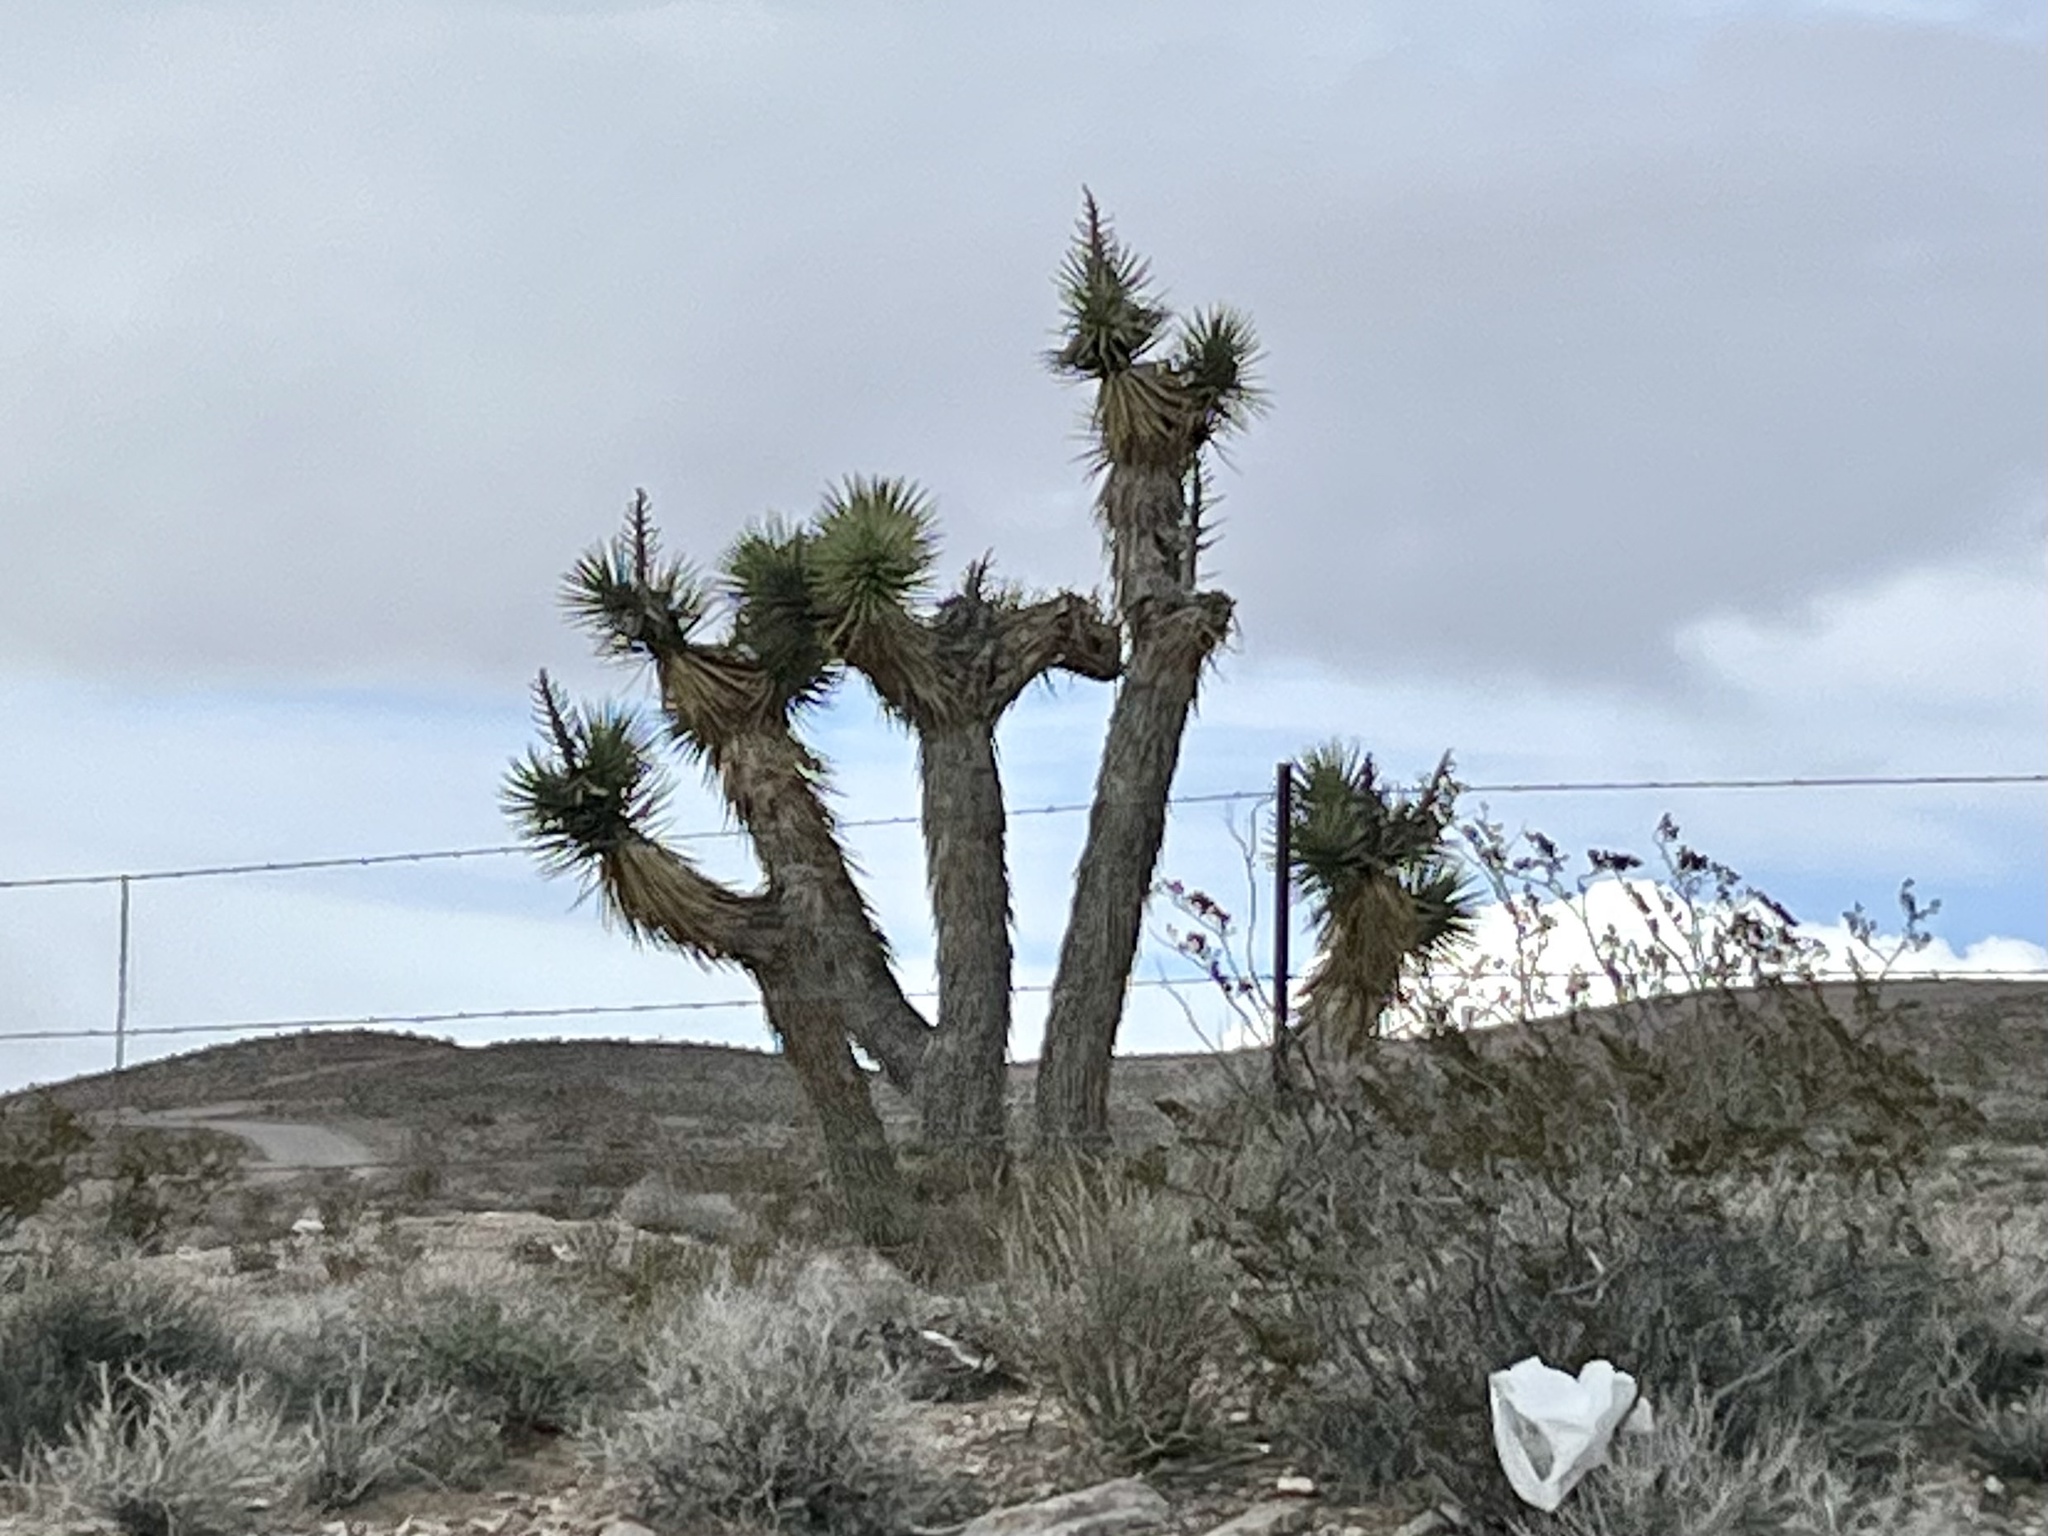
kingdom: Plantae
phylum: Tracheophyta
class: Liliopsida
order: Asparagales
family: Asparagaceae
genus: Yucca
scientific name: Yucca brevifolia
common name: Joshua tree
